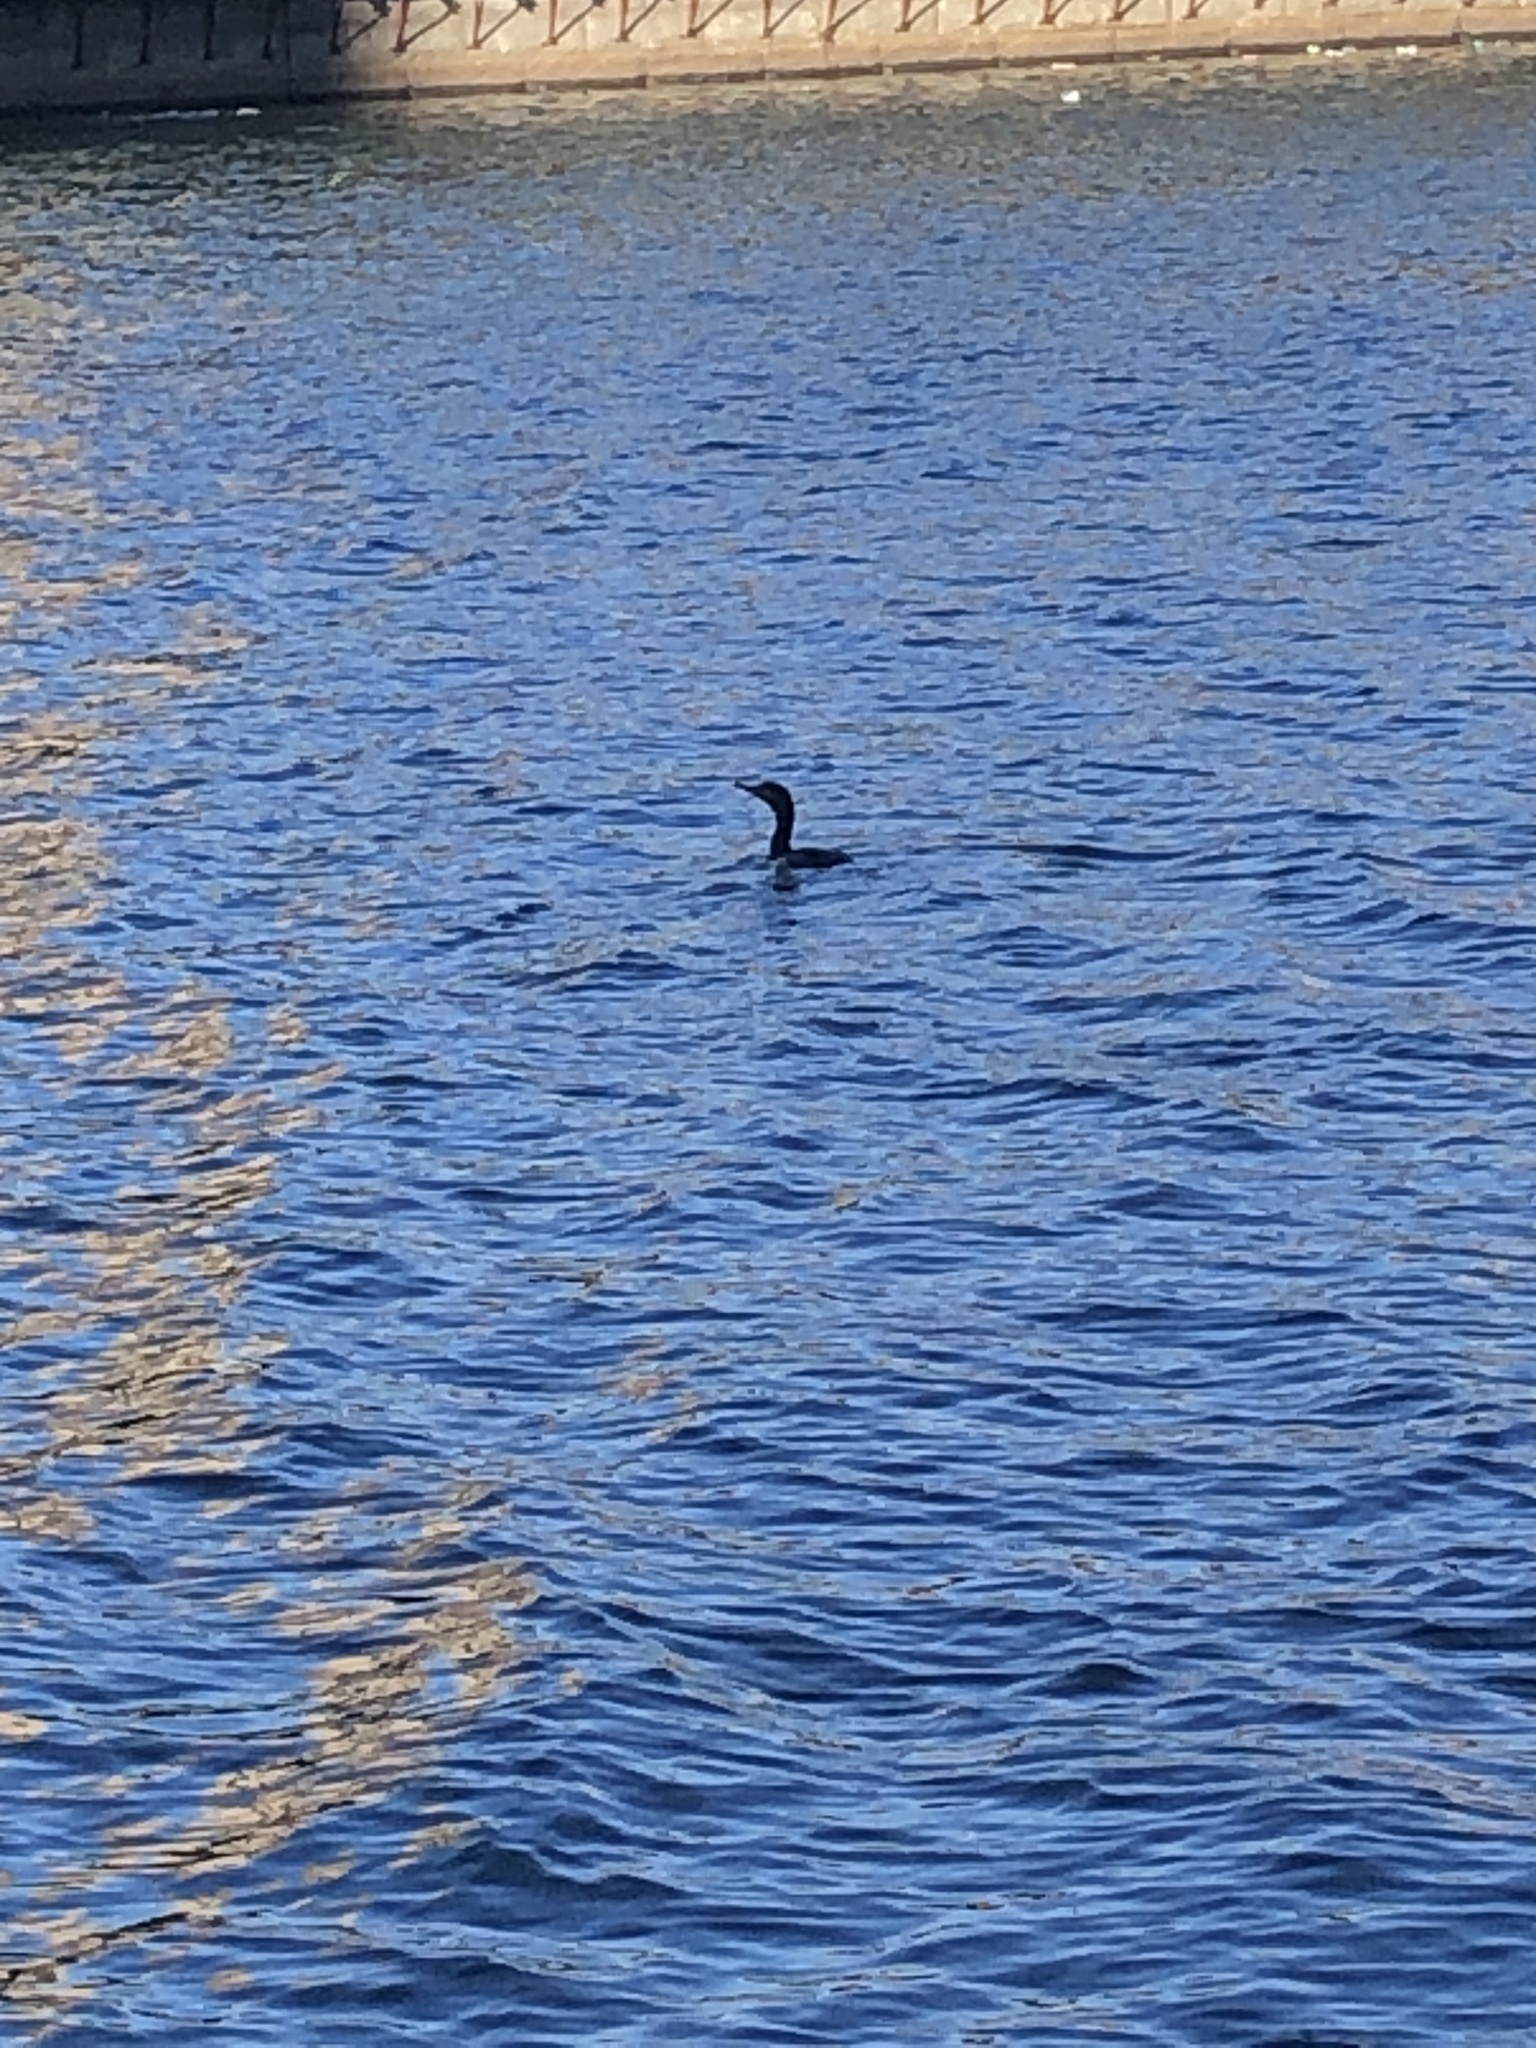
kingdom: Animalia
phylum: Chordata
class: Aves
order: Suliformes
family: Phalacrocoracidae
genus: Phalacrocorax
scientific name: Phalacrocorax auritus
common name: Double-crested cormorant
